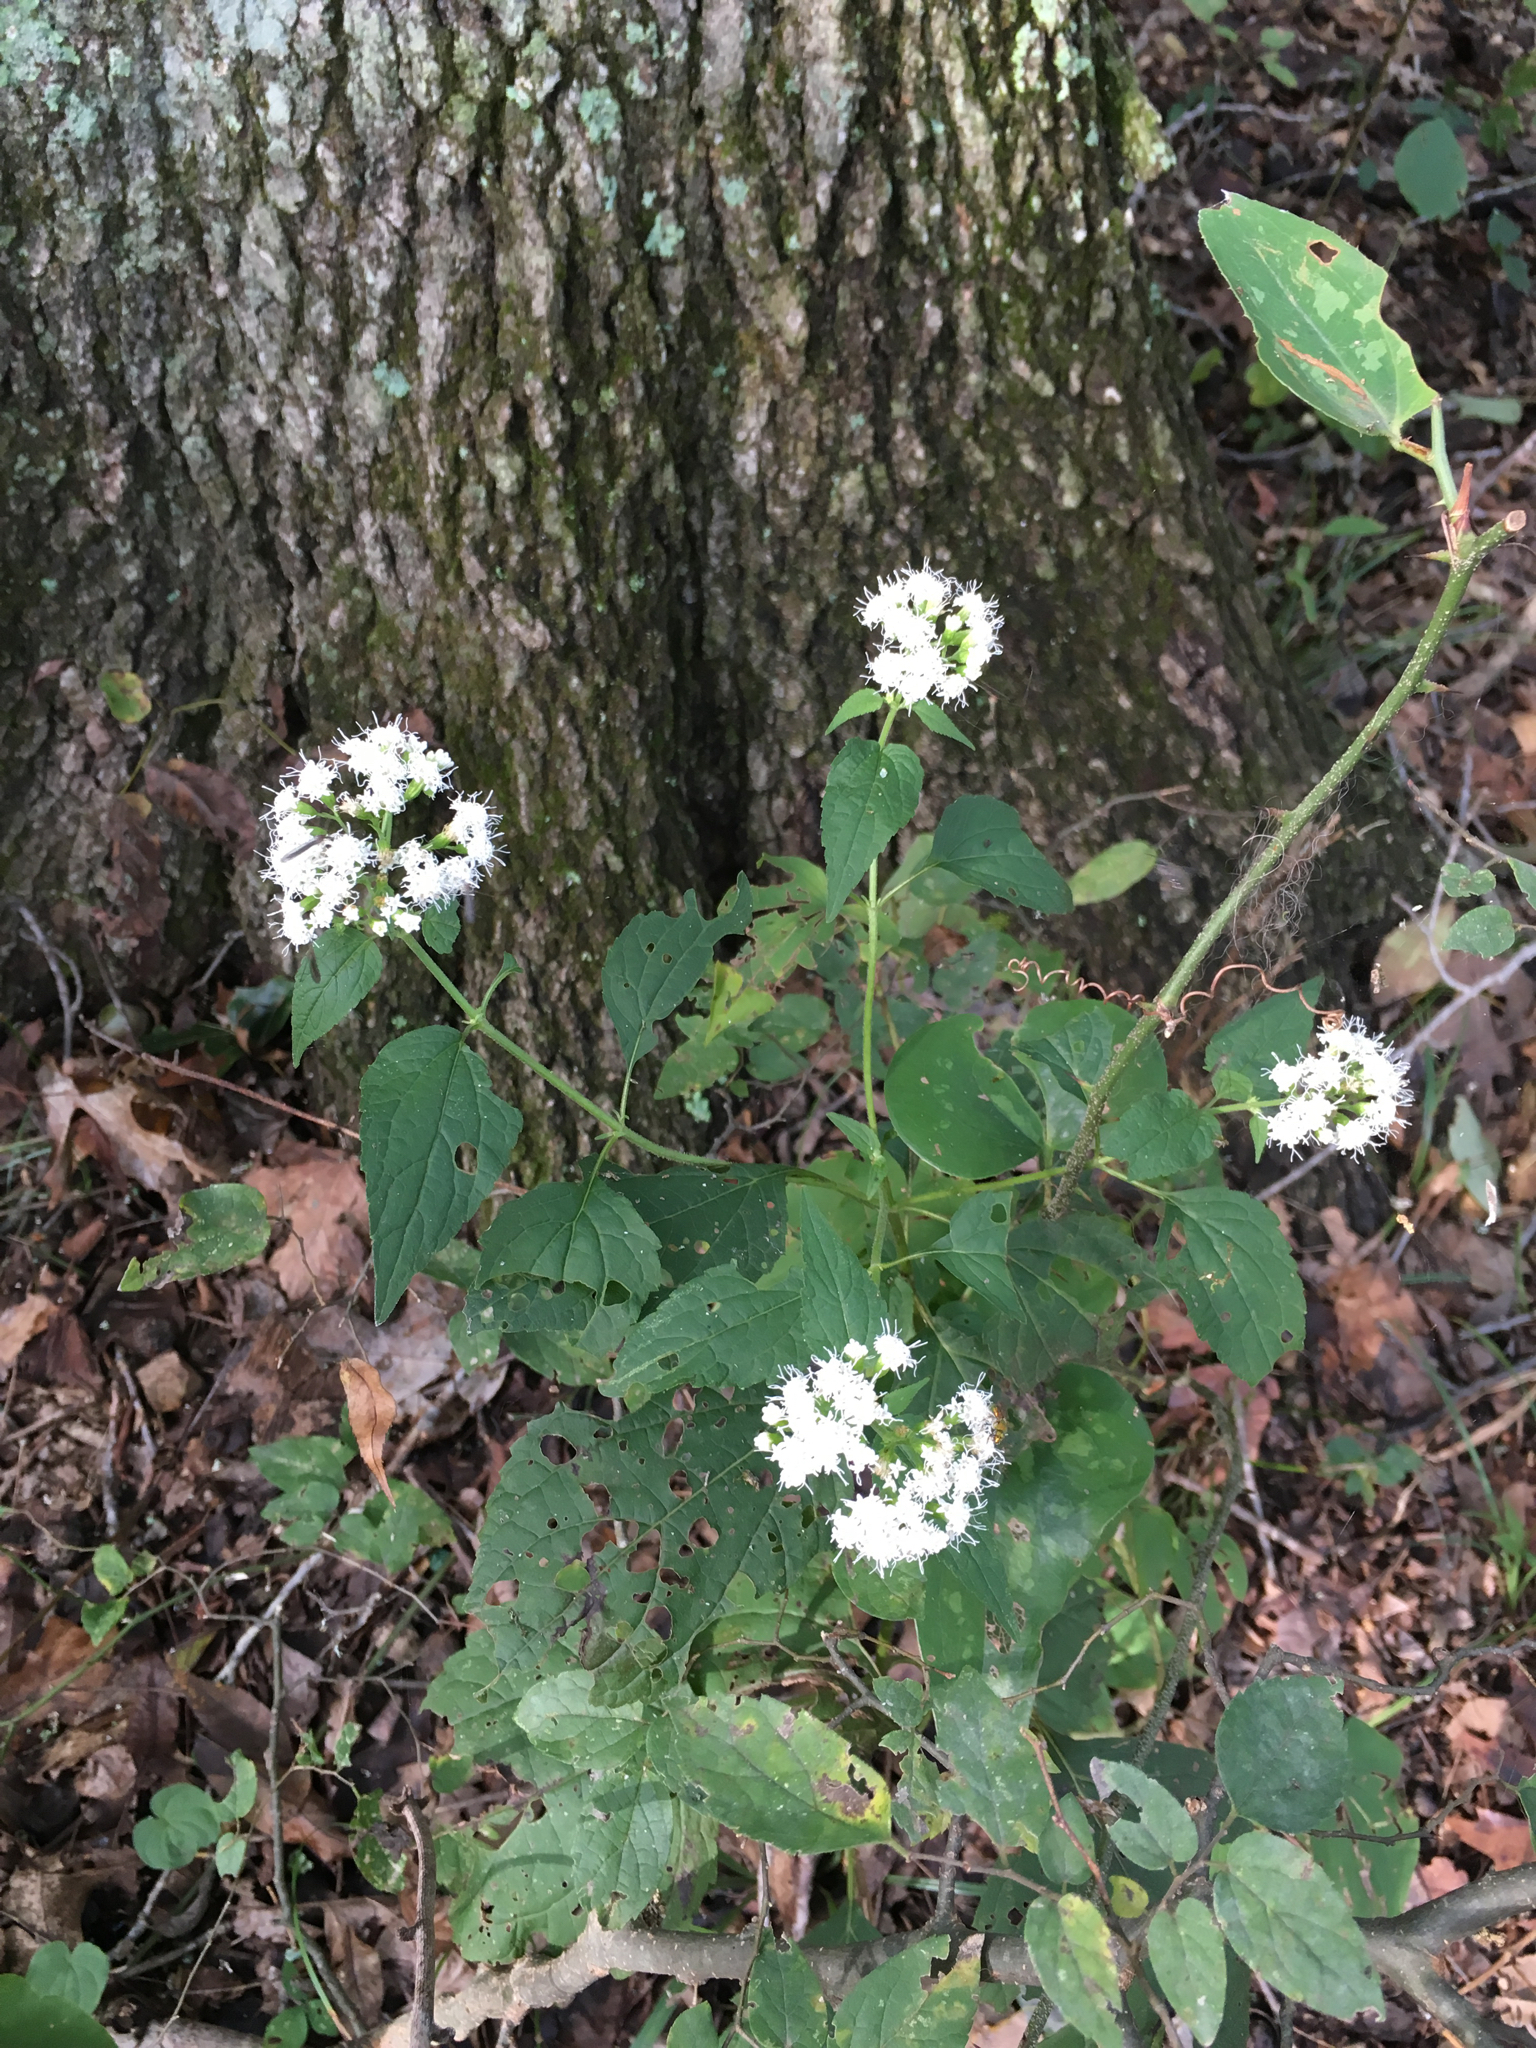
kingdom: Plantae
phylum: Tracheophyta
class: Magnoliopsida
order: Asterales
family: Asteraceae
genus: Ageratina
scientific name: Ageratina altissima
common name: White snakeroot
